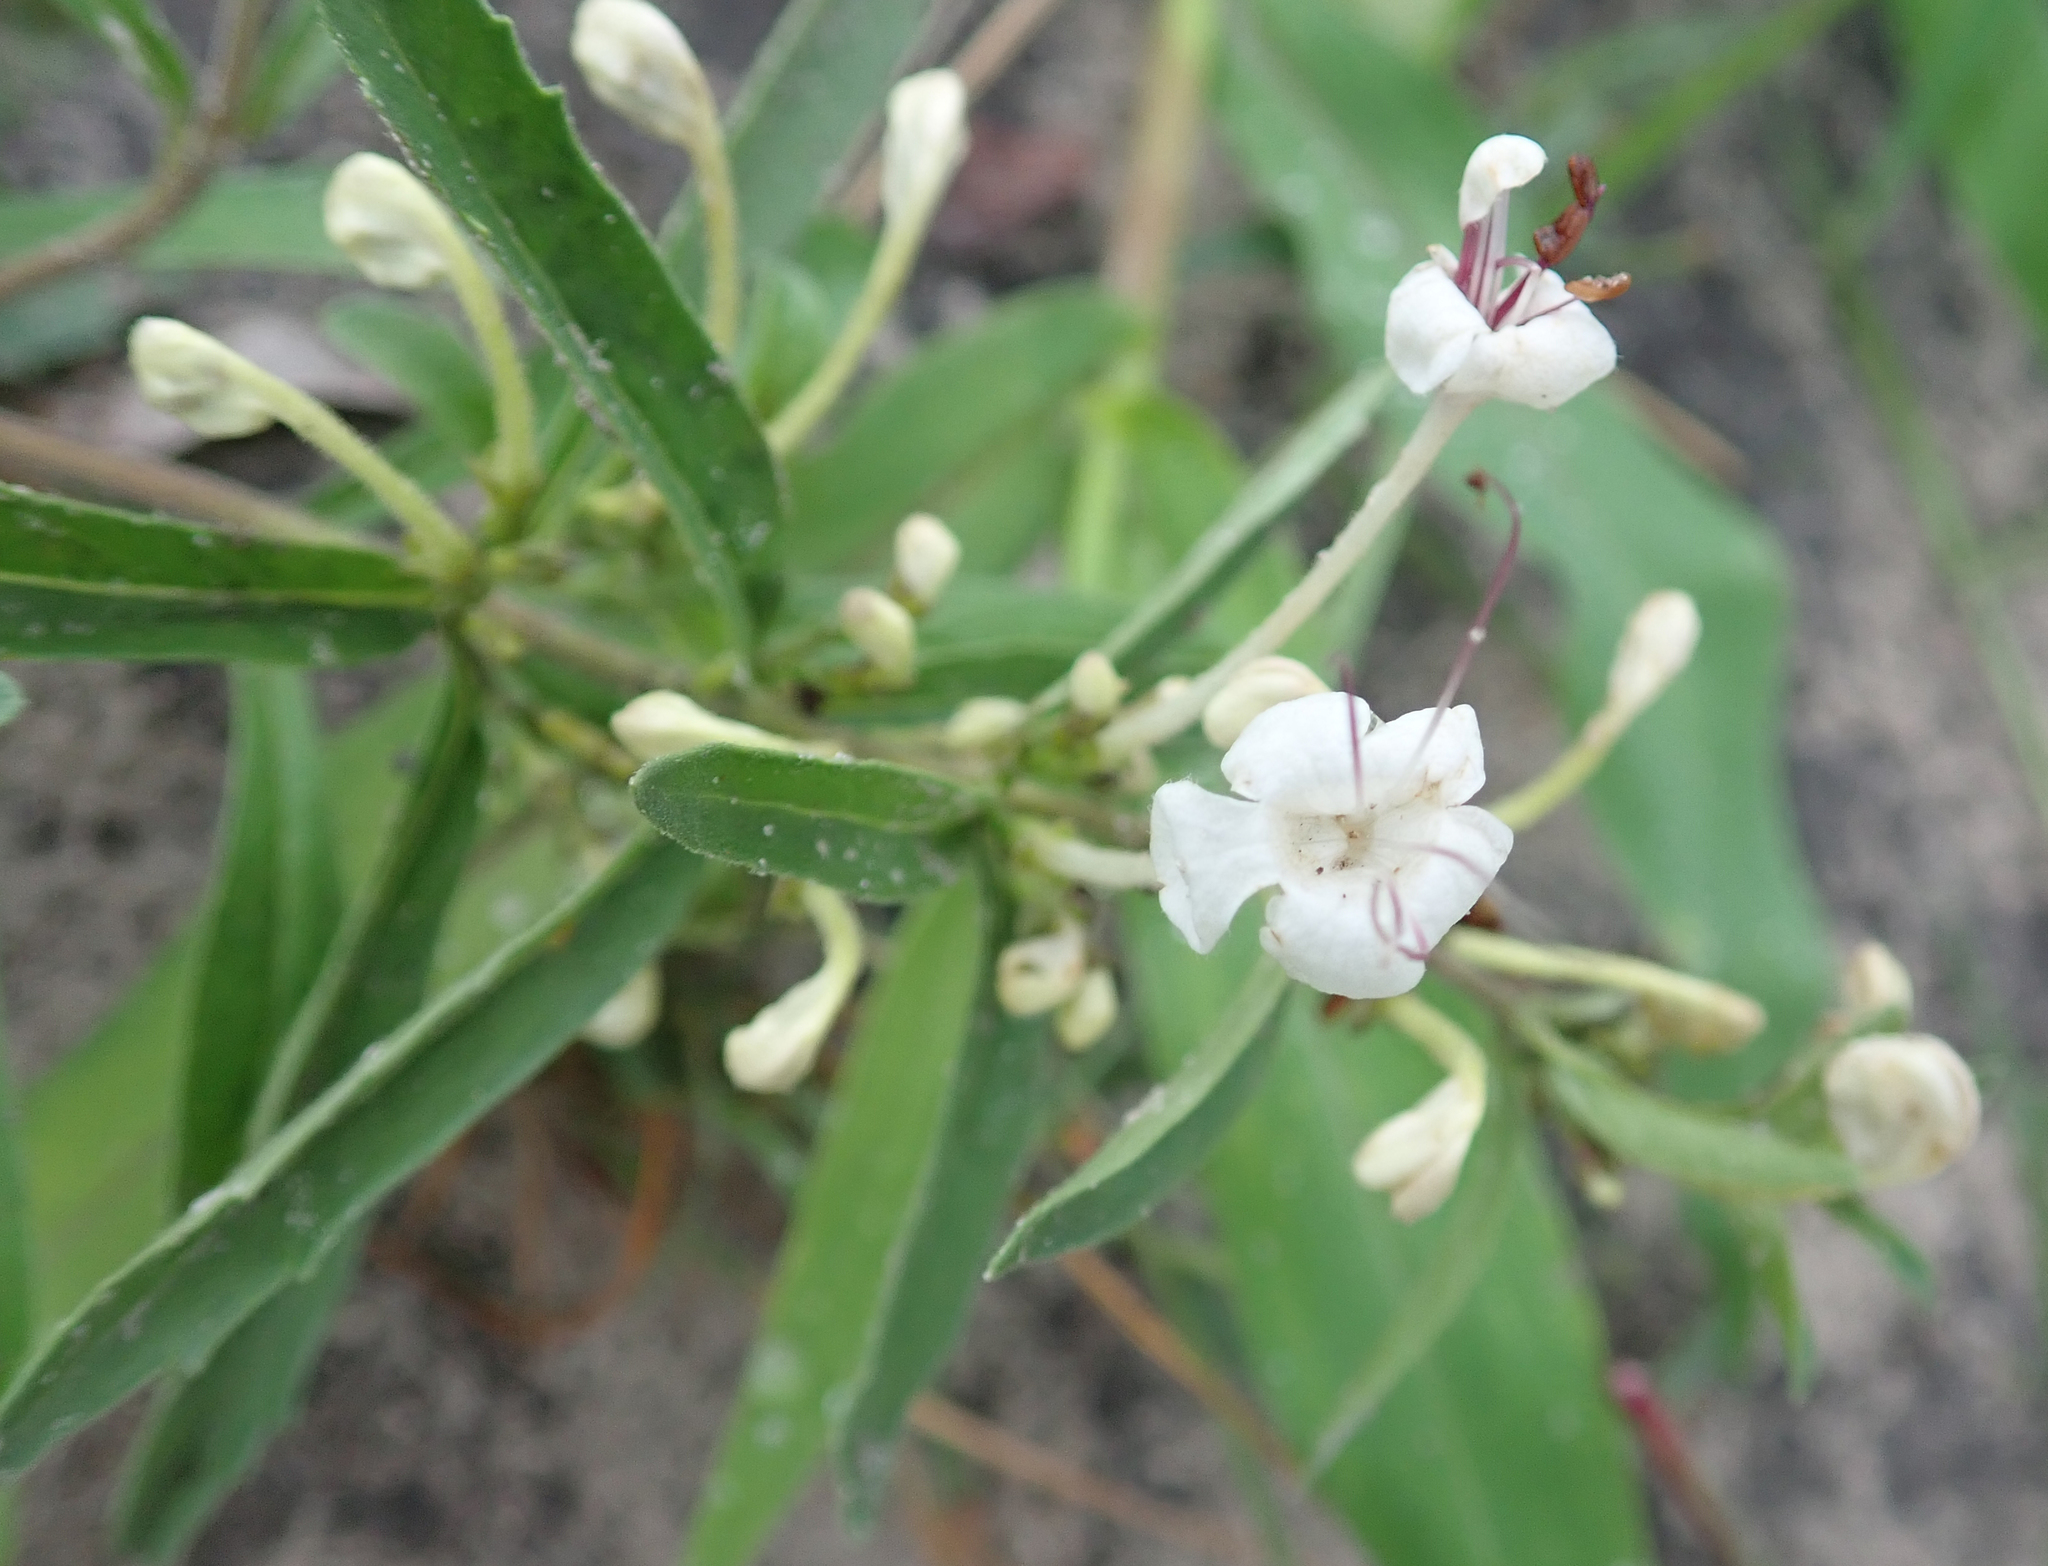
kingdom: Plantae
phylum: Tracheophyta
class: Magnoliopsida
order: Lamiales
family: Lamiaceae
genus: Clerodendrum
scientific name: Clerodendrum ternatum
